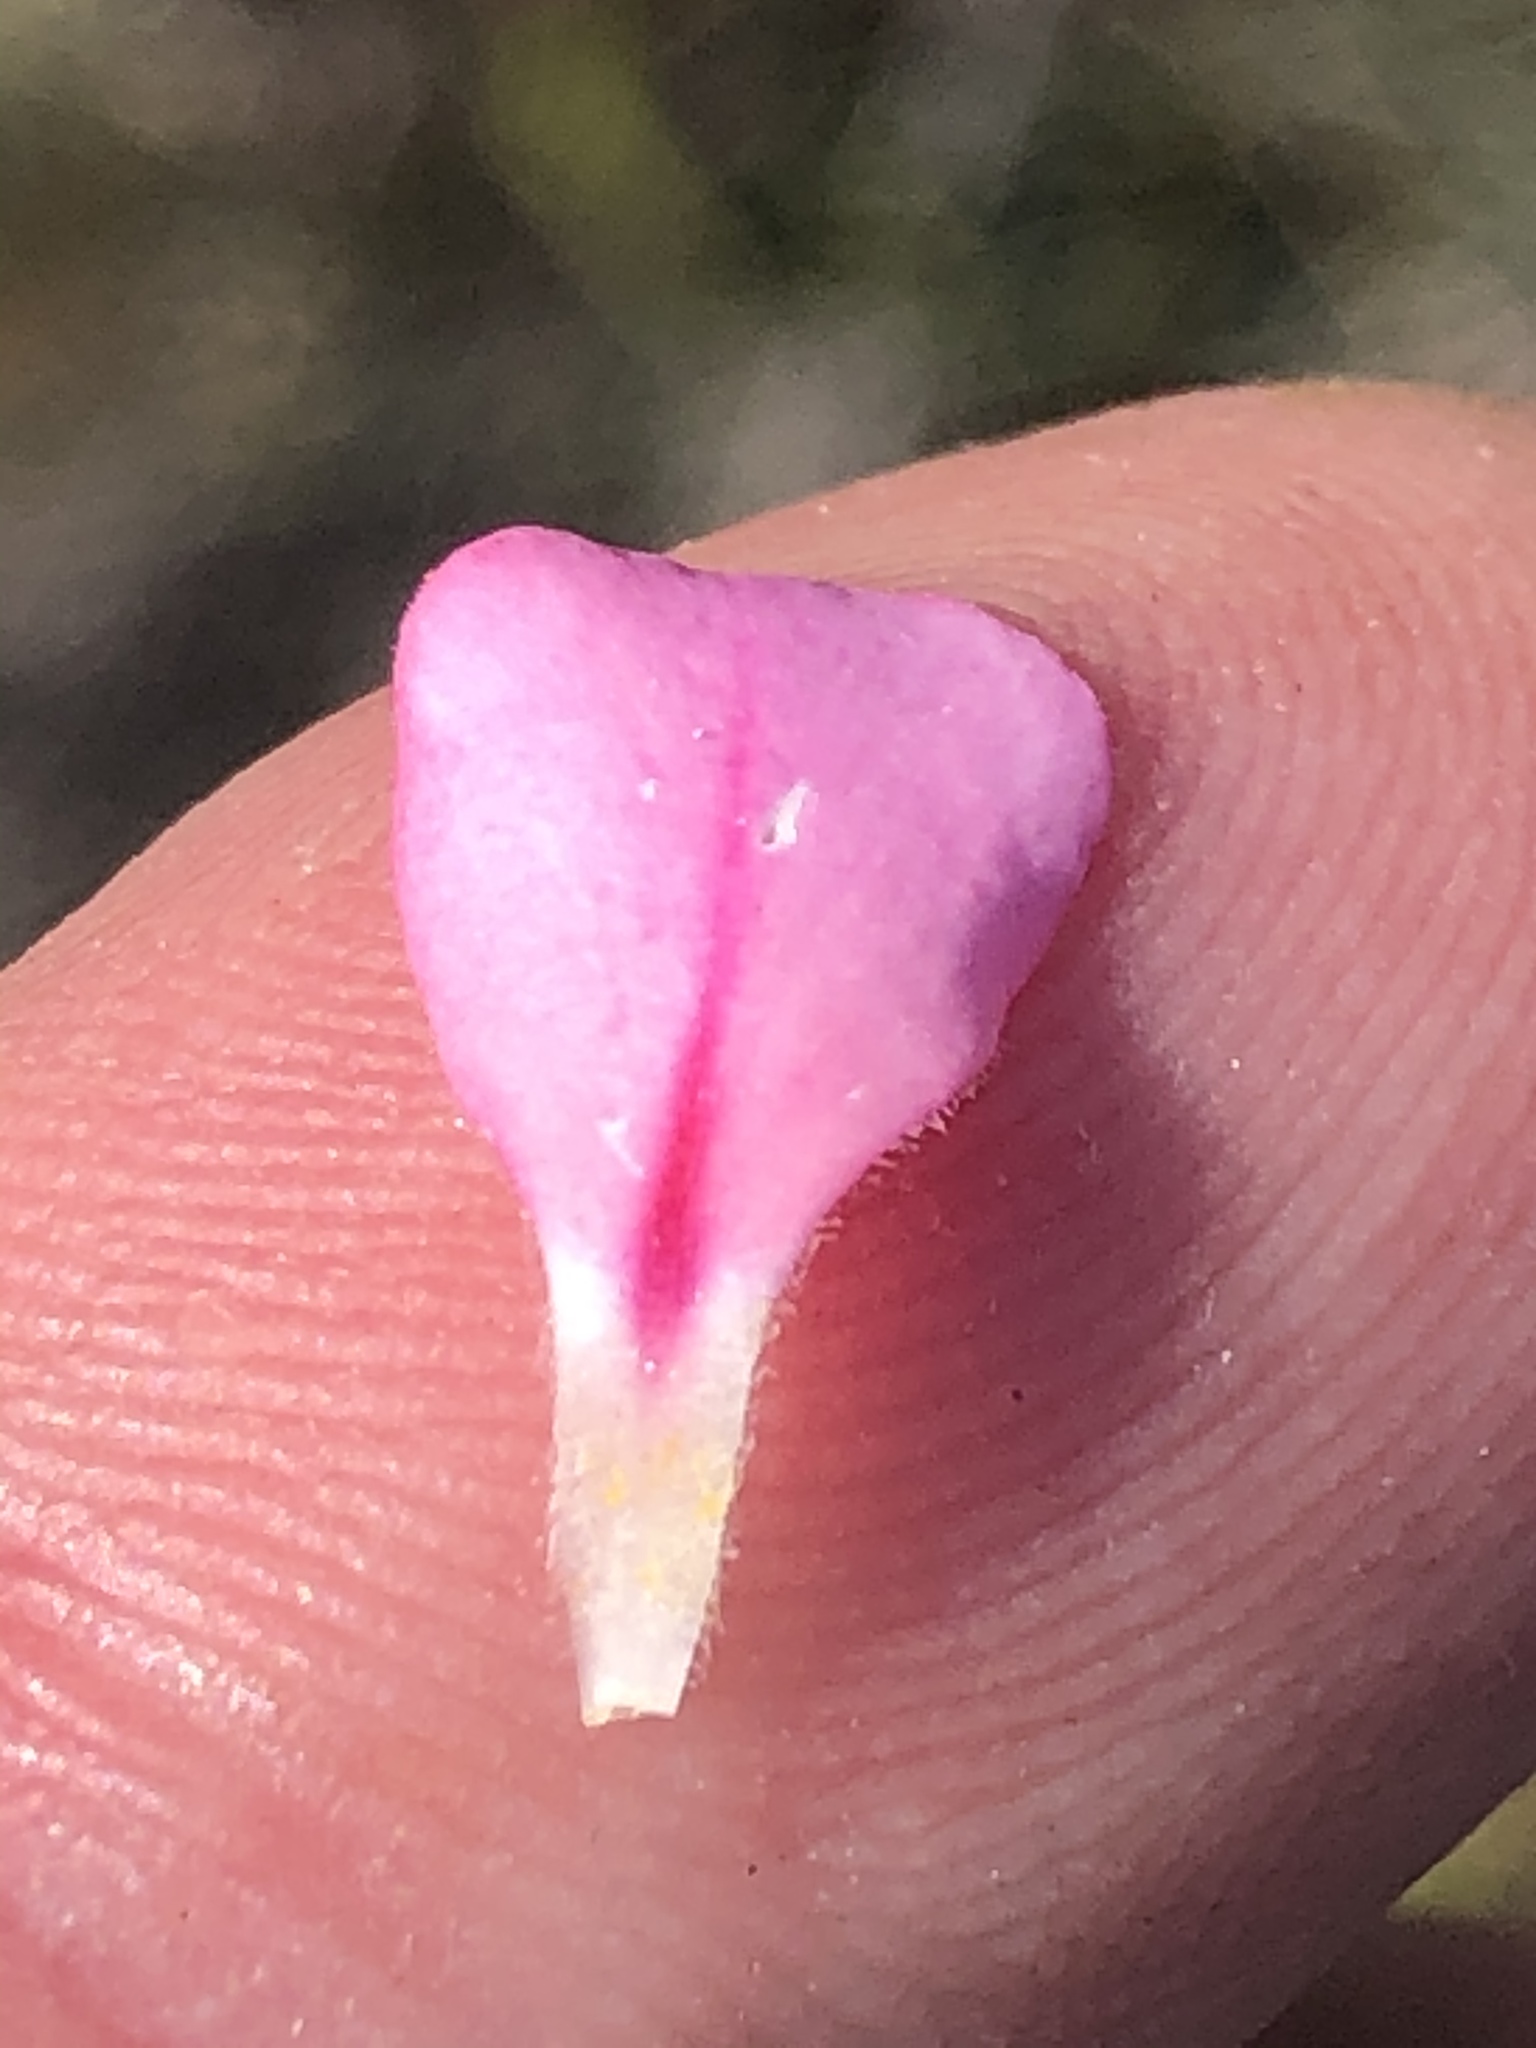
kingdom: Plantae
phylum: Tracheophyta
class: Magnoliopsida
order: Sapindales
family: Rutaceae
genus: Acmadenia
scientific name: Acmadenia tetragona
